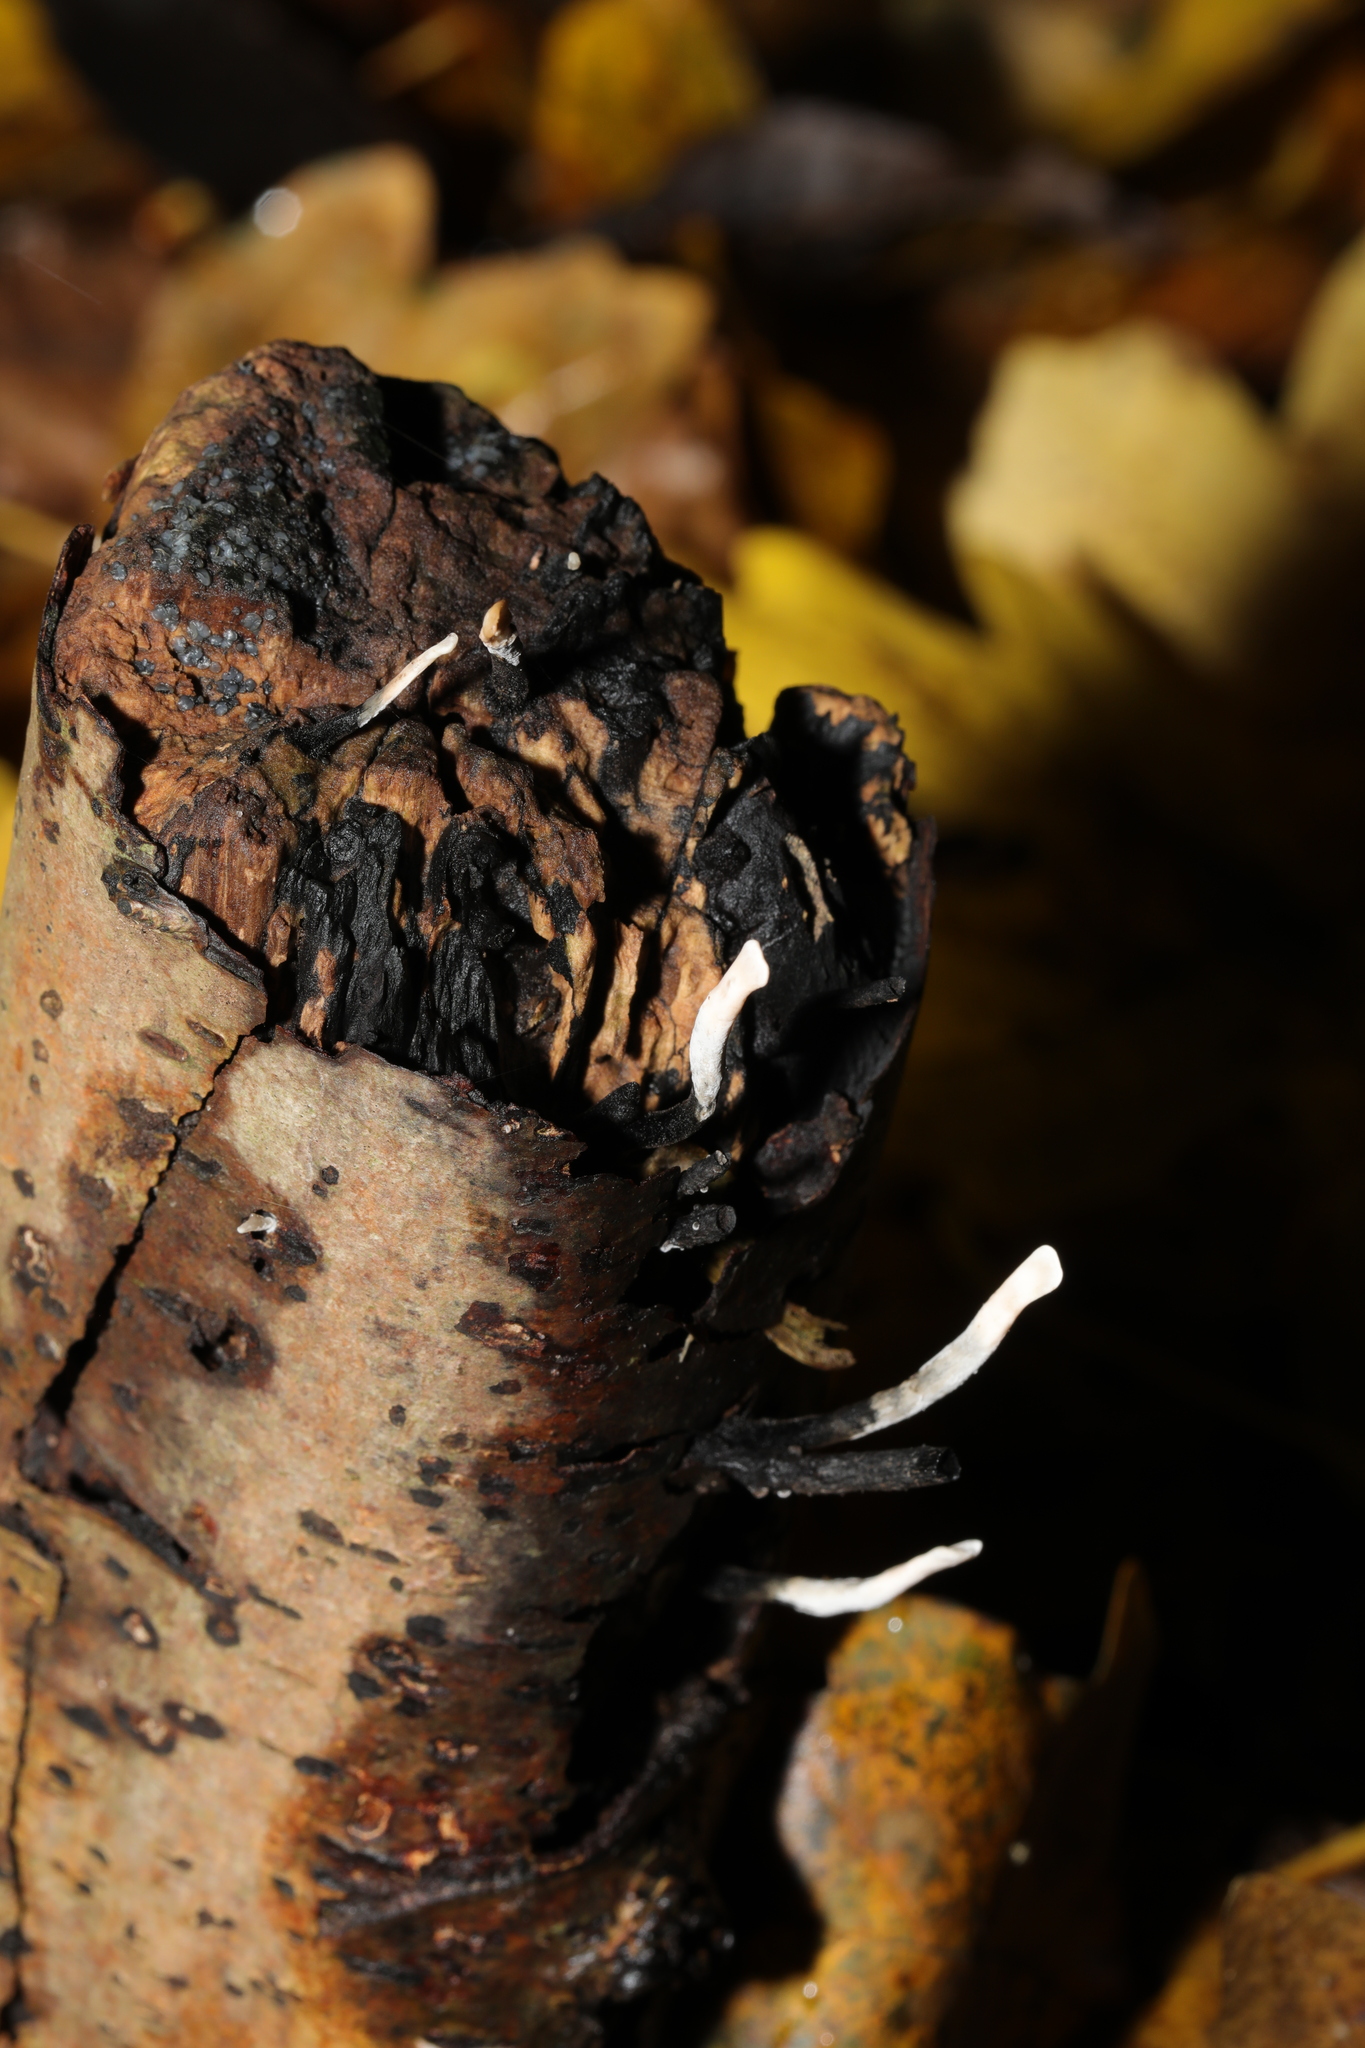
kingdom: Fungi
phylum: Ascomycota
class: Sordariomycetes
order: Xylariales
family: Xylariaceae
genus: Xylaria
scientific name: Xylaria hypoxylon
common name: Candle-snuff fungus
